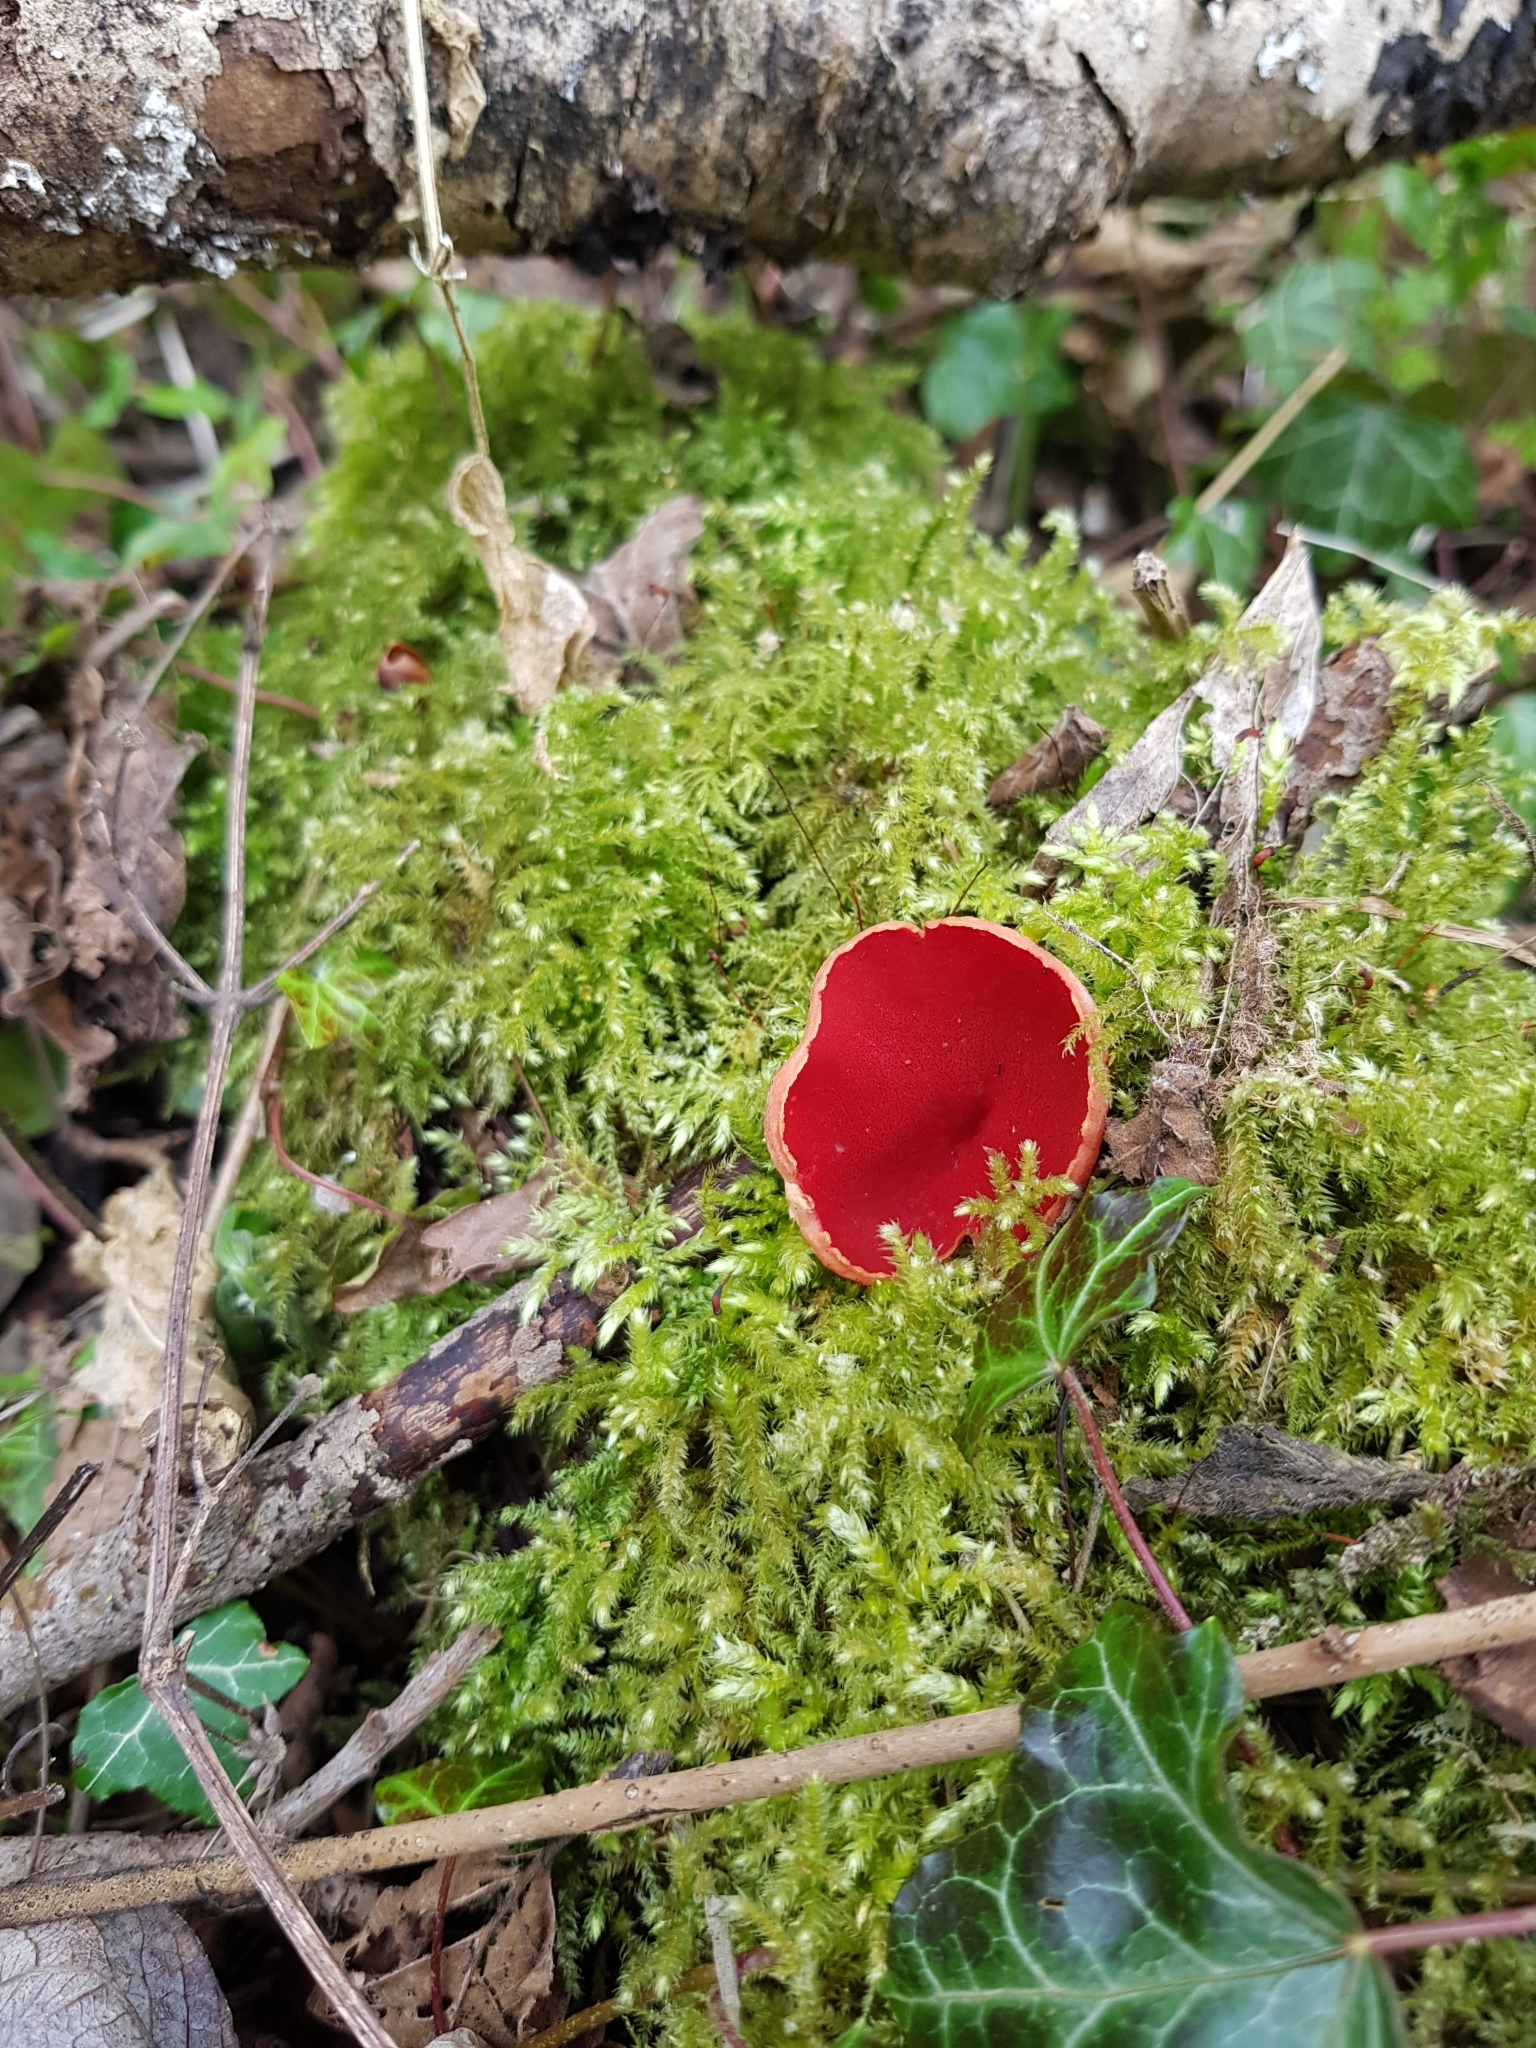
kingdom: Fungi
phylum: Ascomycota
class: Pezizomycetes
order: Pezizales
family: Sarcoscyphaceae
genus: Sarcoscypha
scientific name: Sarcoscypha
